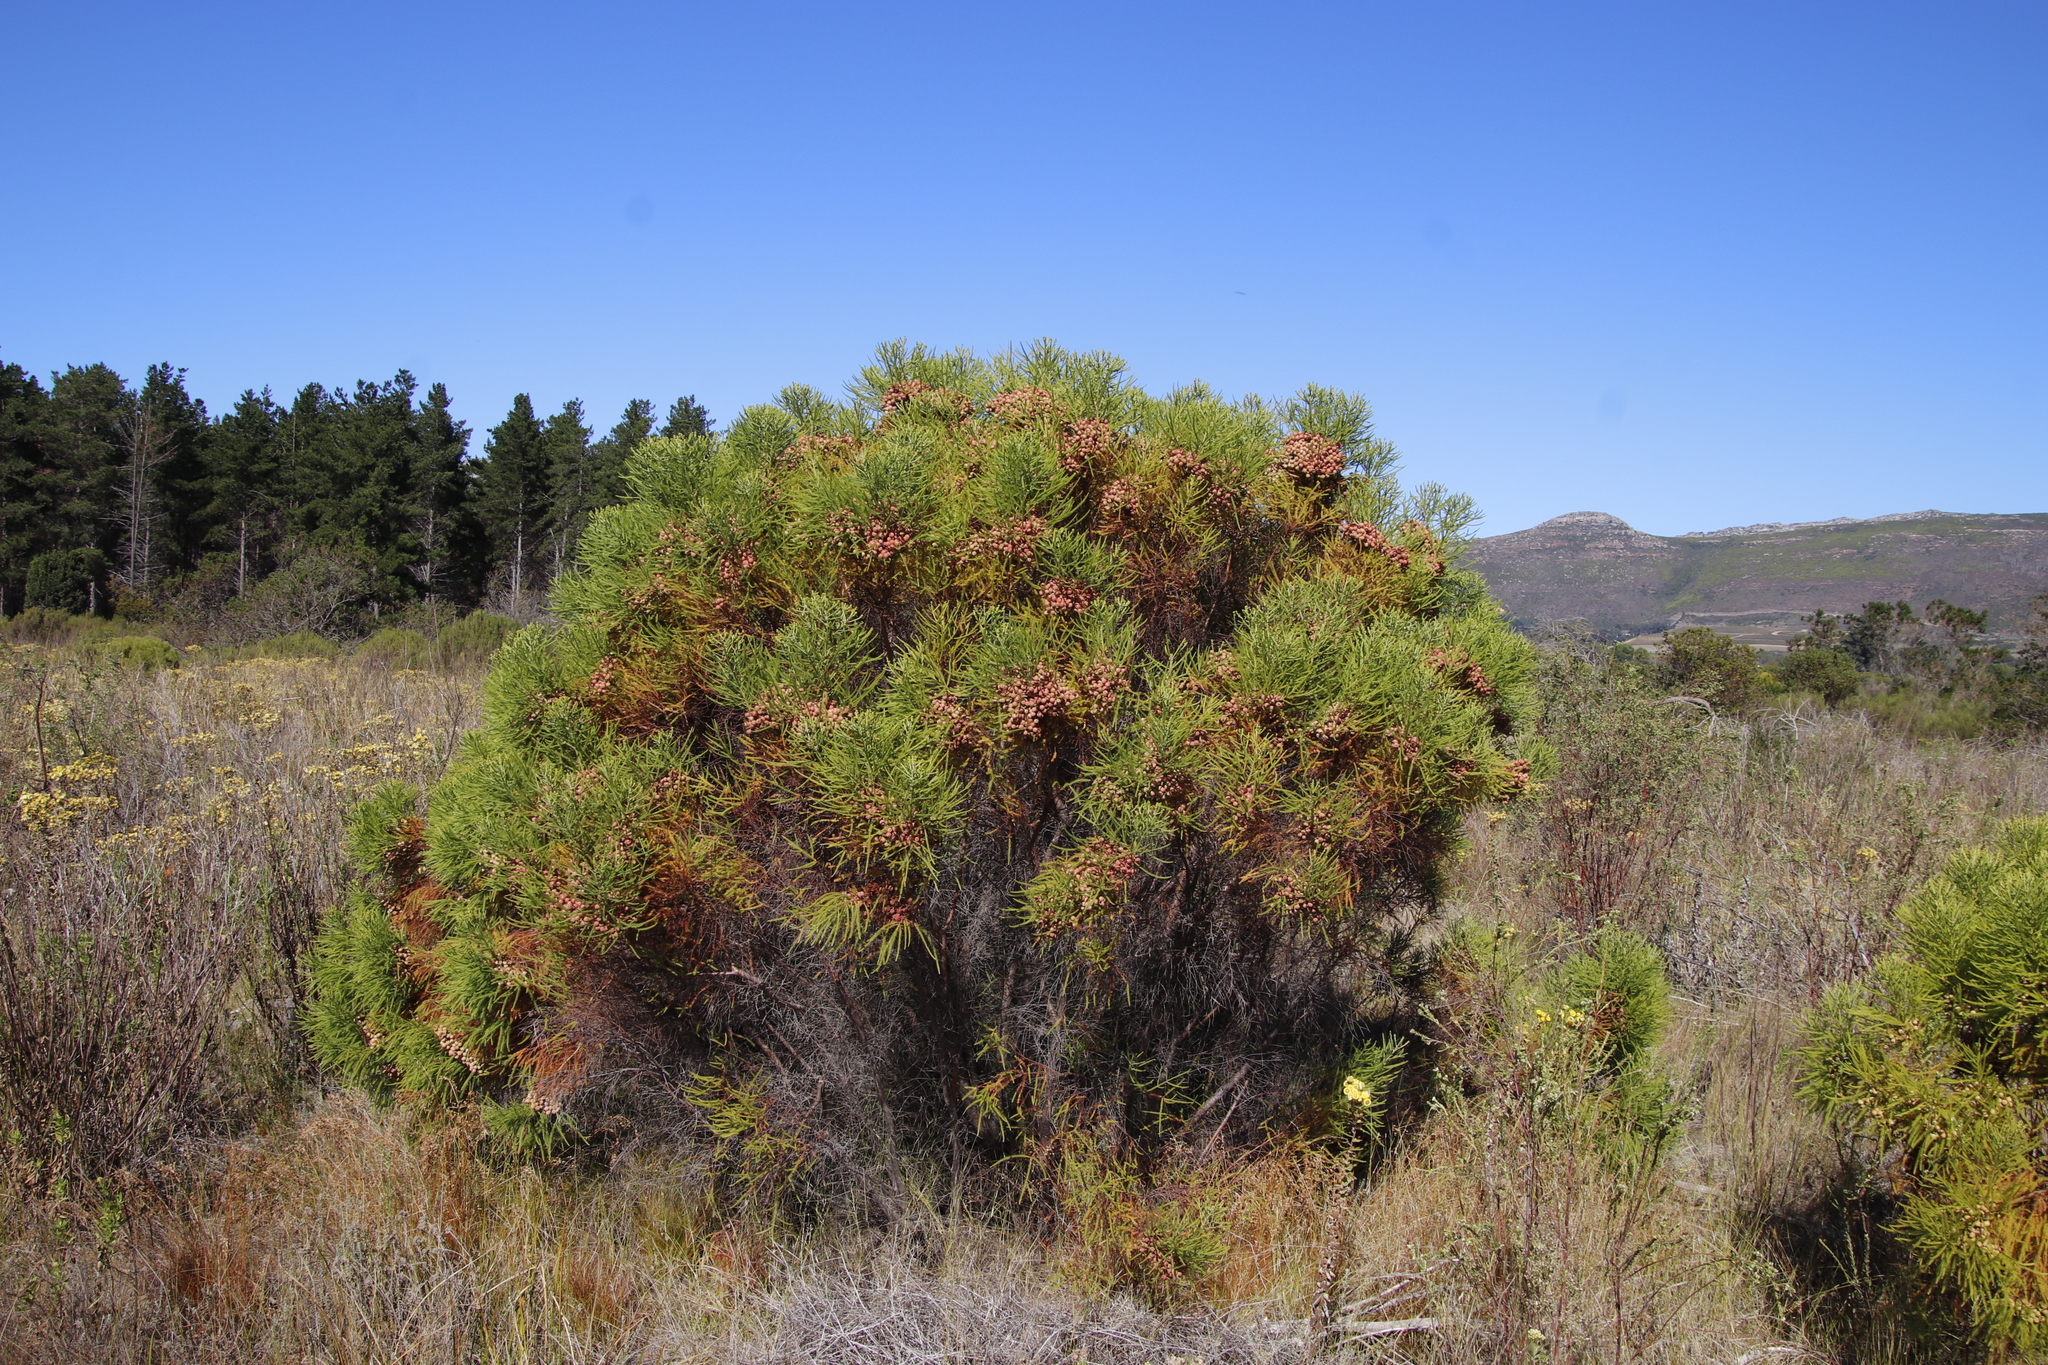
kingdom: Plantae
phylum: Tracheophyta
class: Magnoliopsida
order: Bruniales
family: Bruniaceae
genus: Berzelia
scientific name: Berzelia lanuginosa
